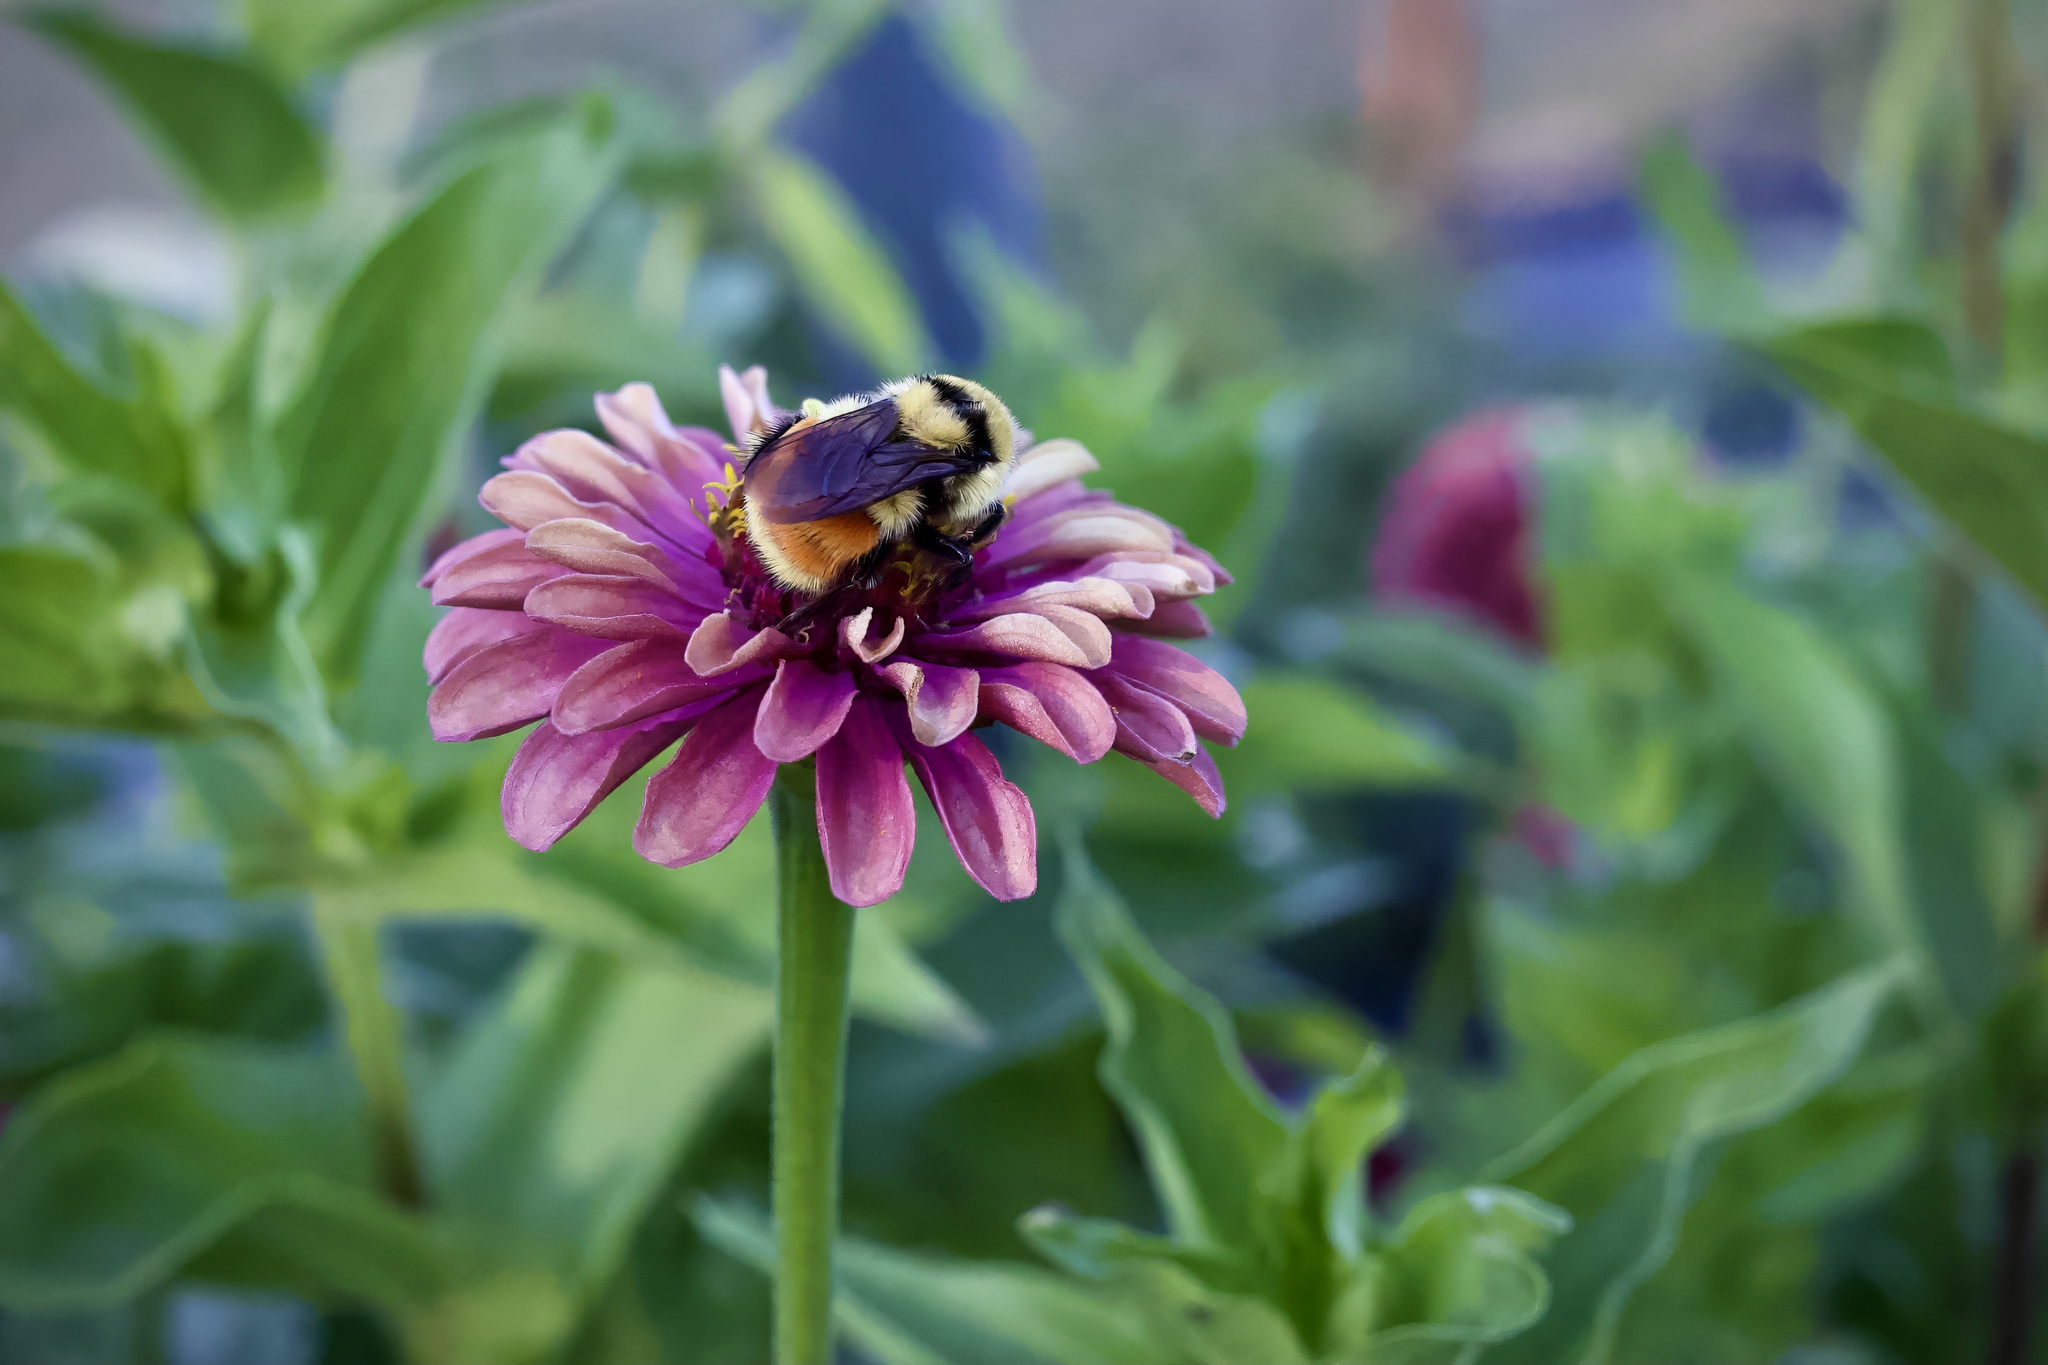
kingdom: Animalia
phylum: Arthropoda
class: Insecta
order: Hymenoptera
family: Apidae
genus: Bombus
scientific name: Bombus huntii
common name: Hunt bumble bee
